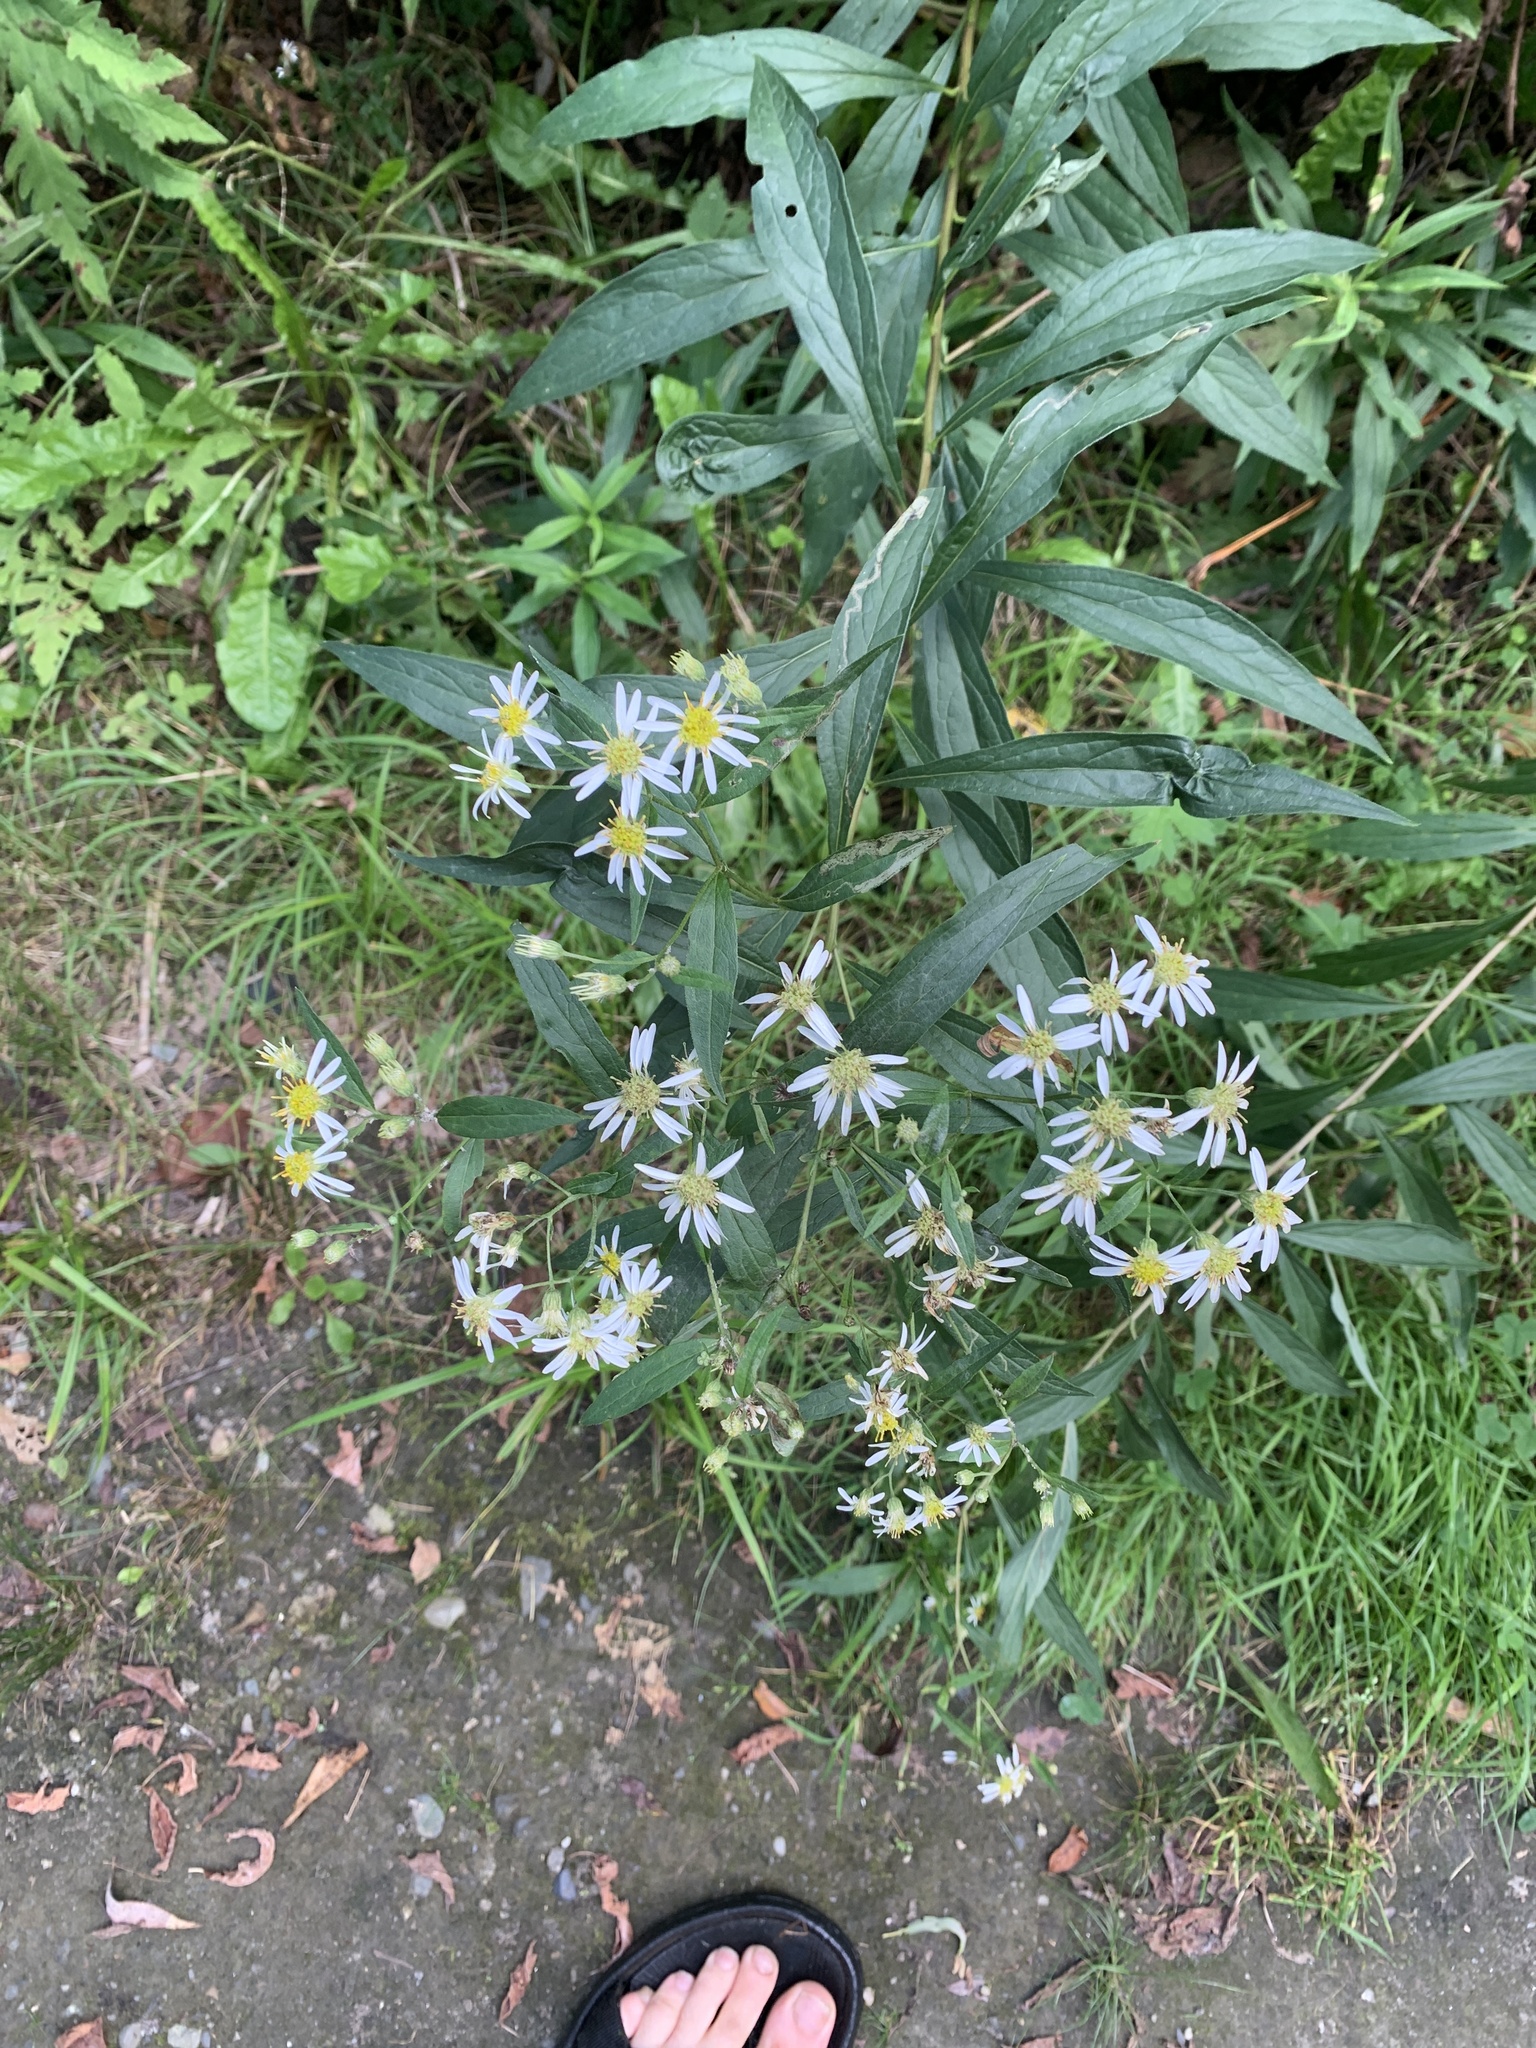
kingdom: Plantae
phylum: Tracheophyta
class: Magnoliopsida
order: Asterales
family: Asteraceae
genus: Doellingeria
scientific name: Doellingeria umbellata
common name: Flat-top white aster
